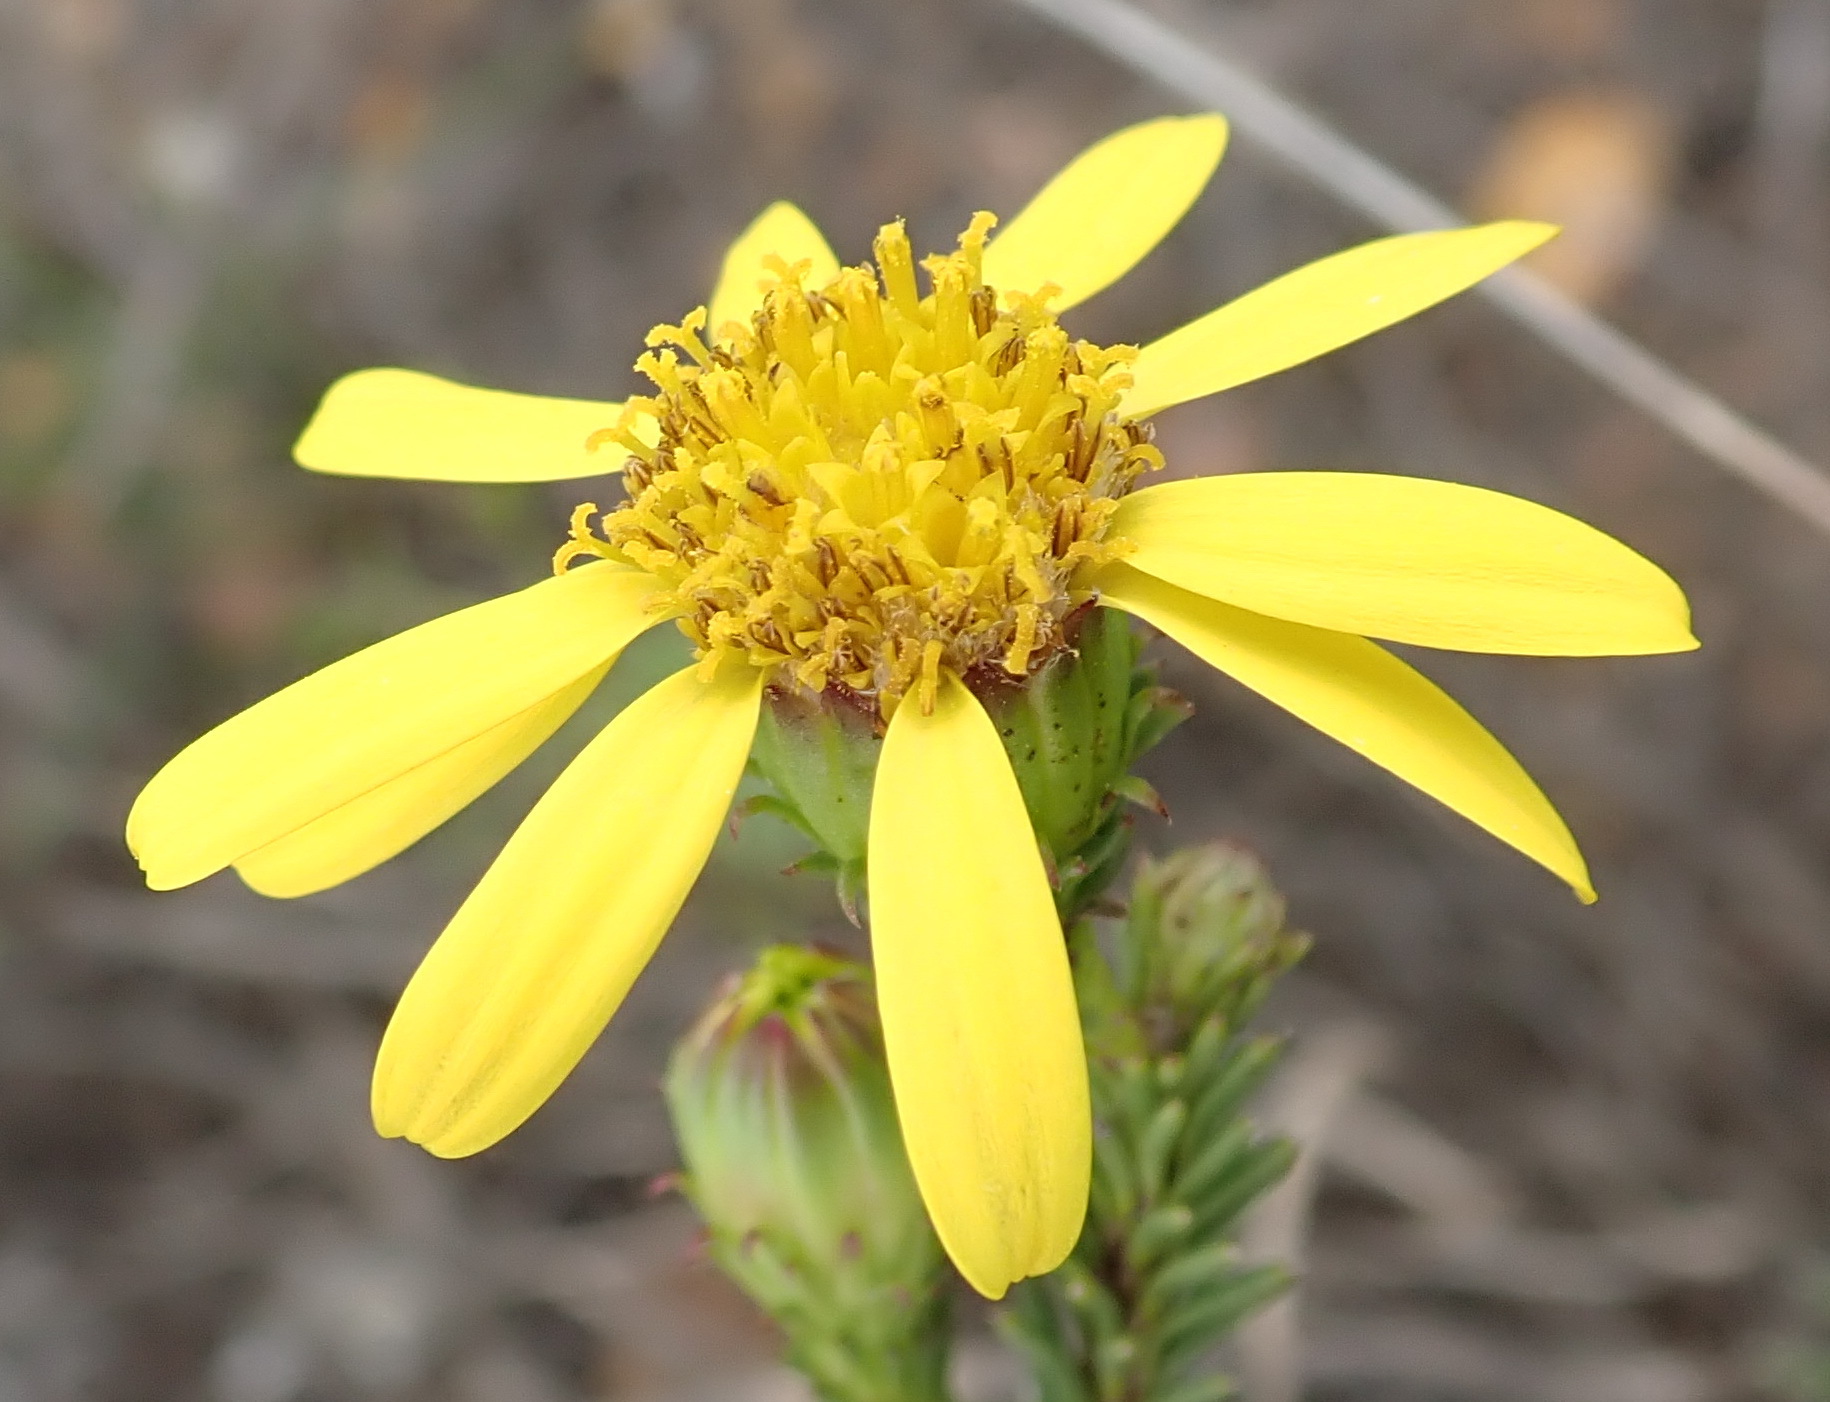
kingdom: Plantae
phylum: Tracheophyta
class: Magnoliopsida
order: Asterales
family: Asteraceae
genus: Senecio
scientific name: Senecio pinifolius
